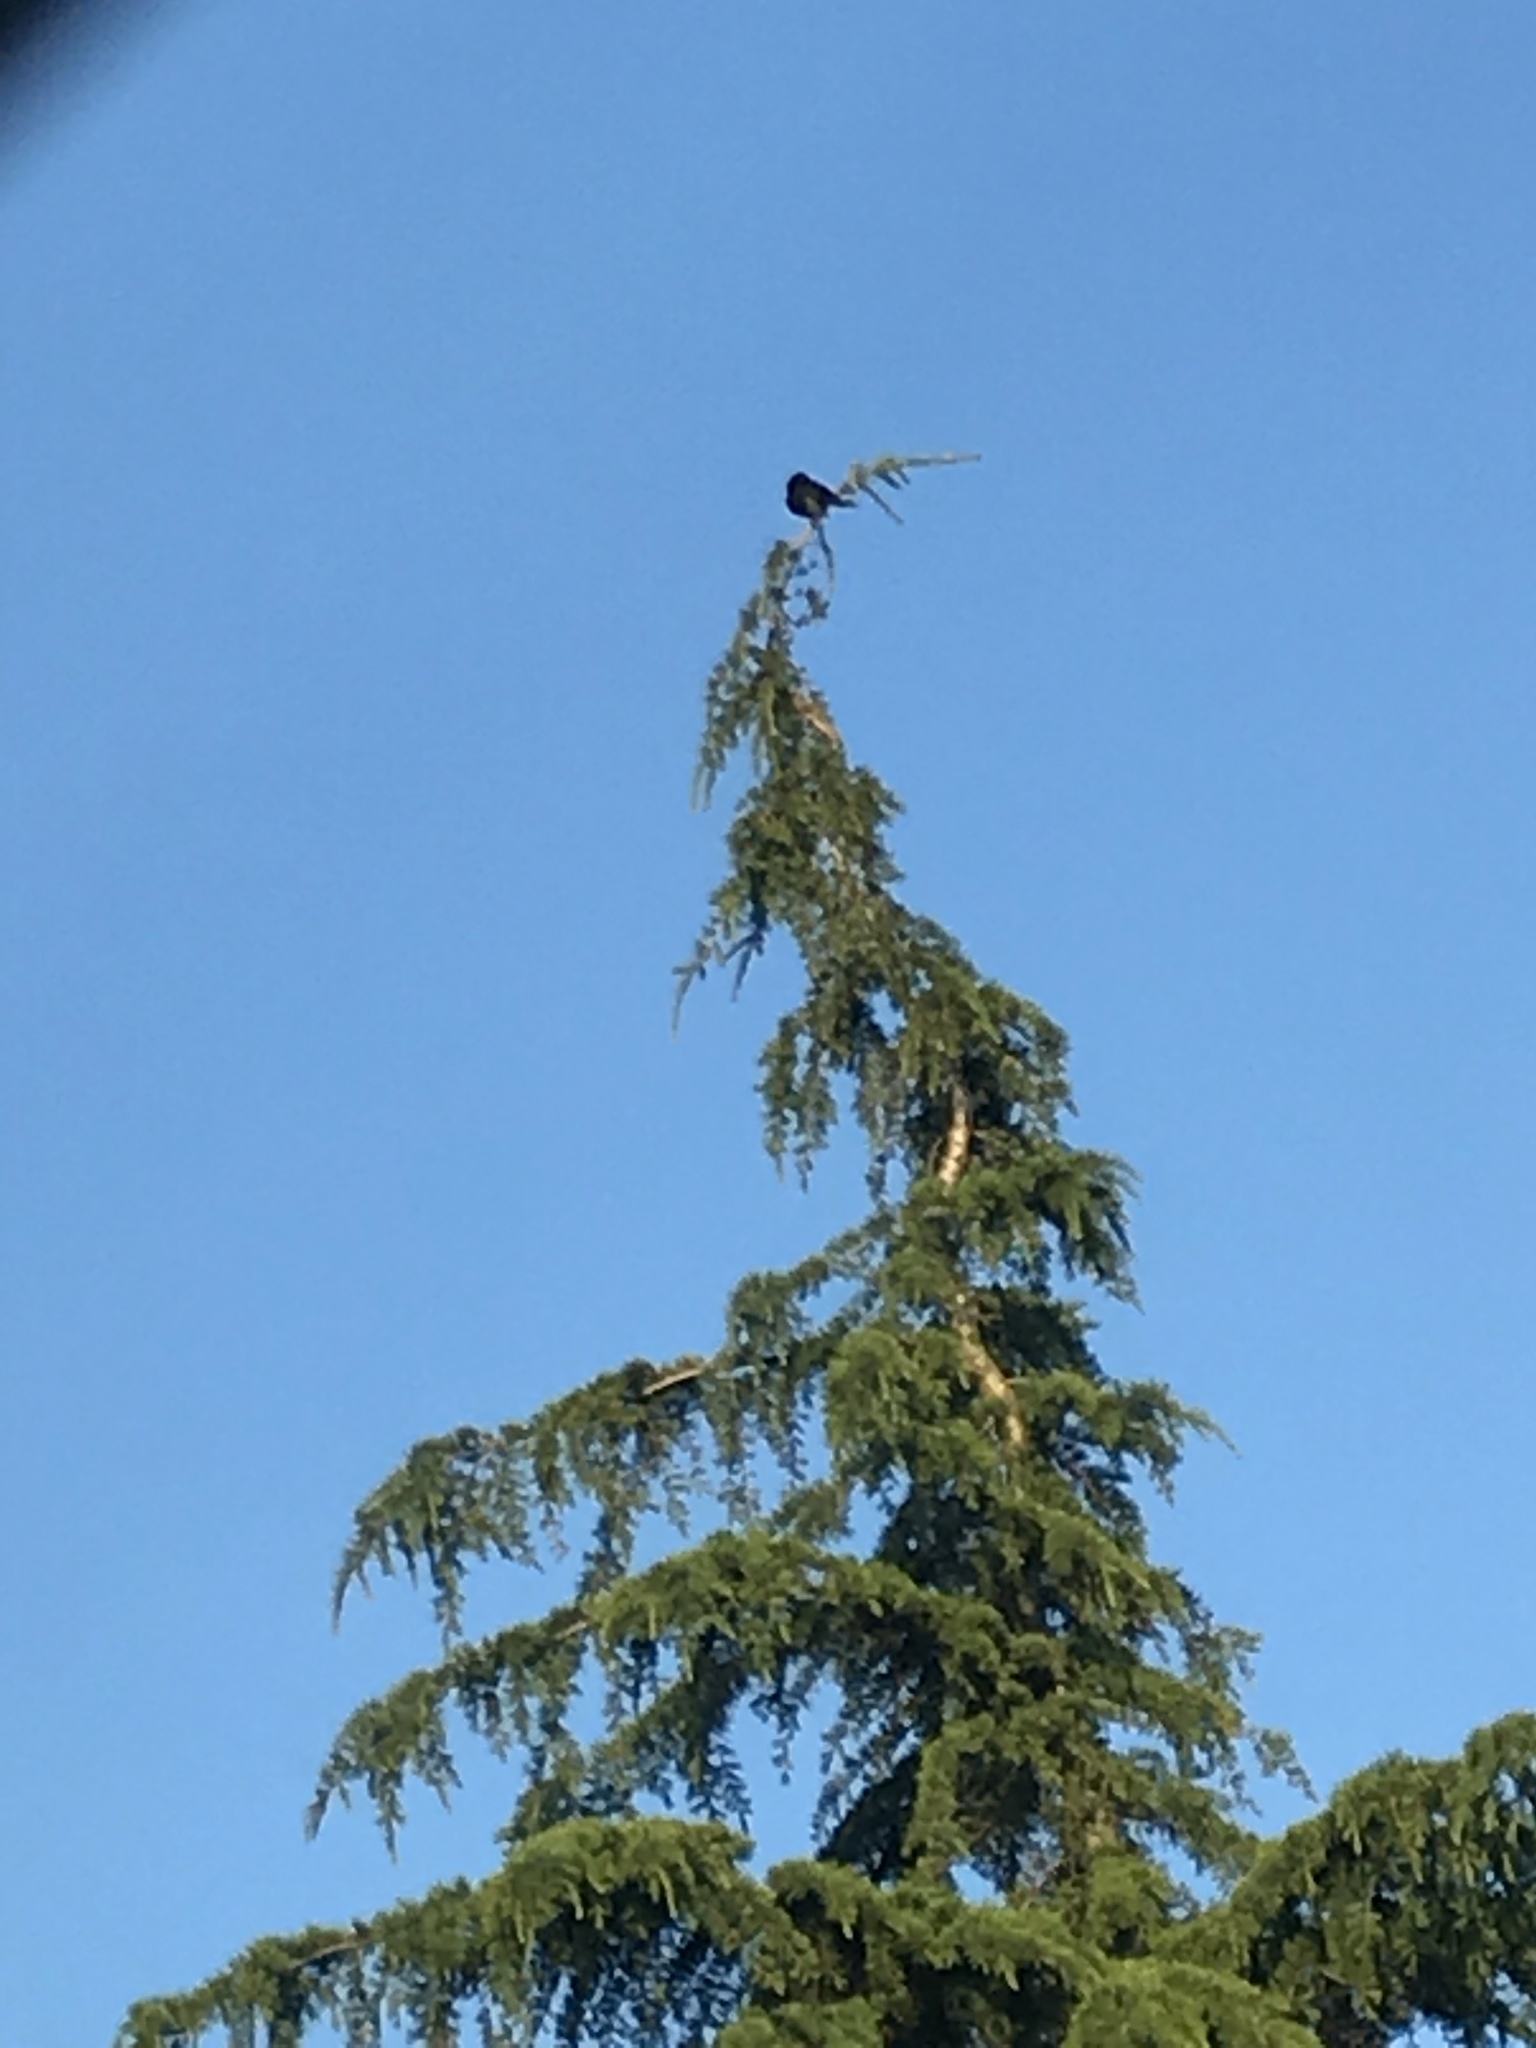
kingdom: Animalia
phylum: Chordata
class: Aves
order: Passeriformes
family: Turdidae
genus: Turdus
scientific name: Turdus merula
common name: Common blackbird
